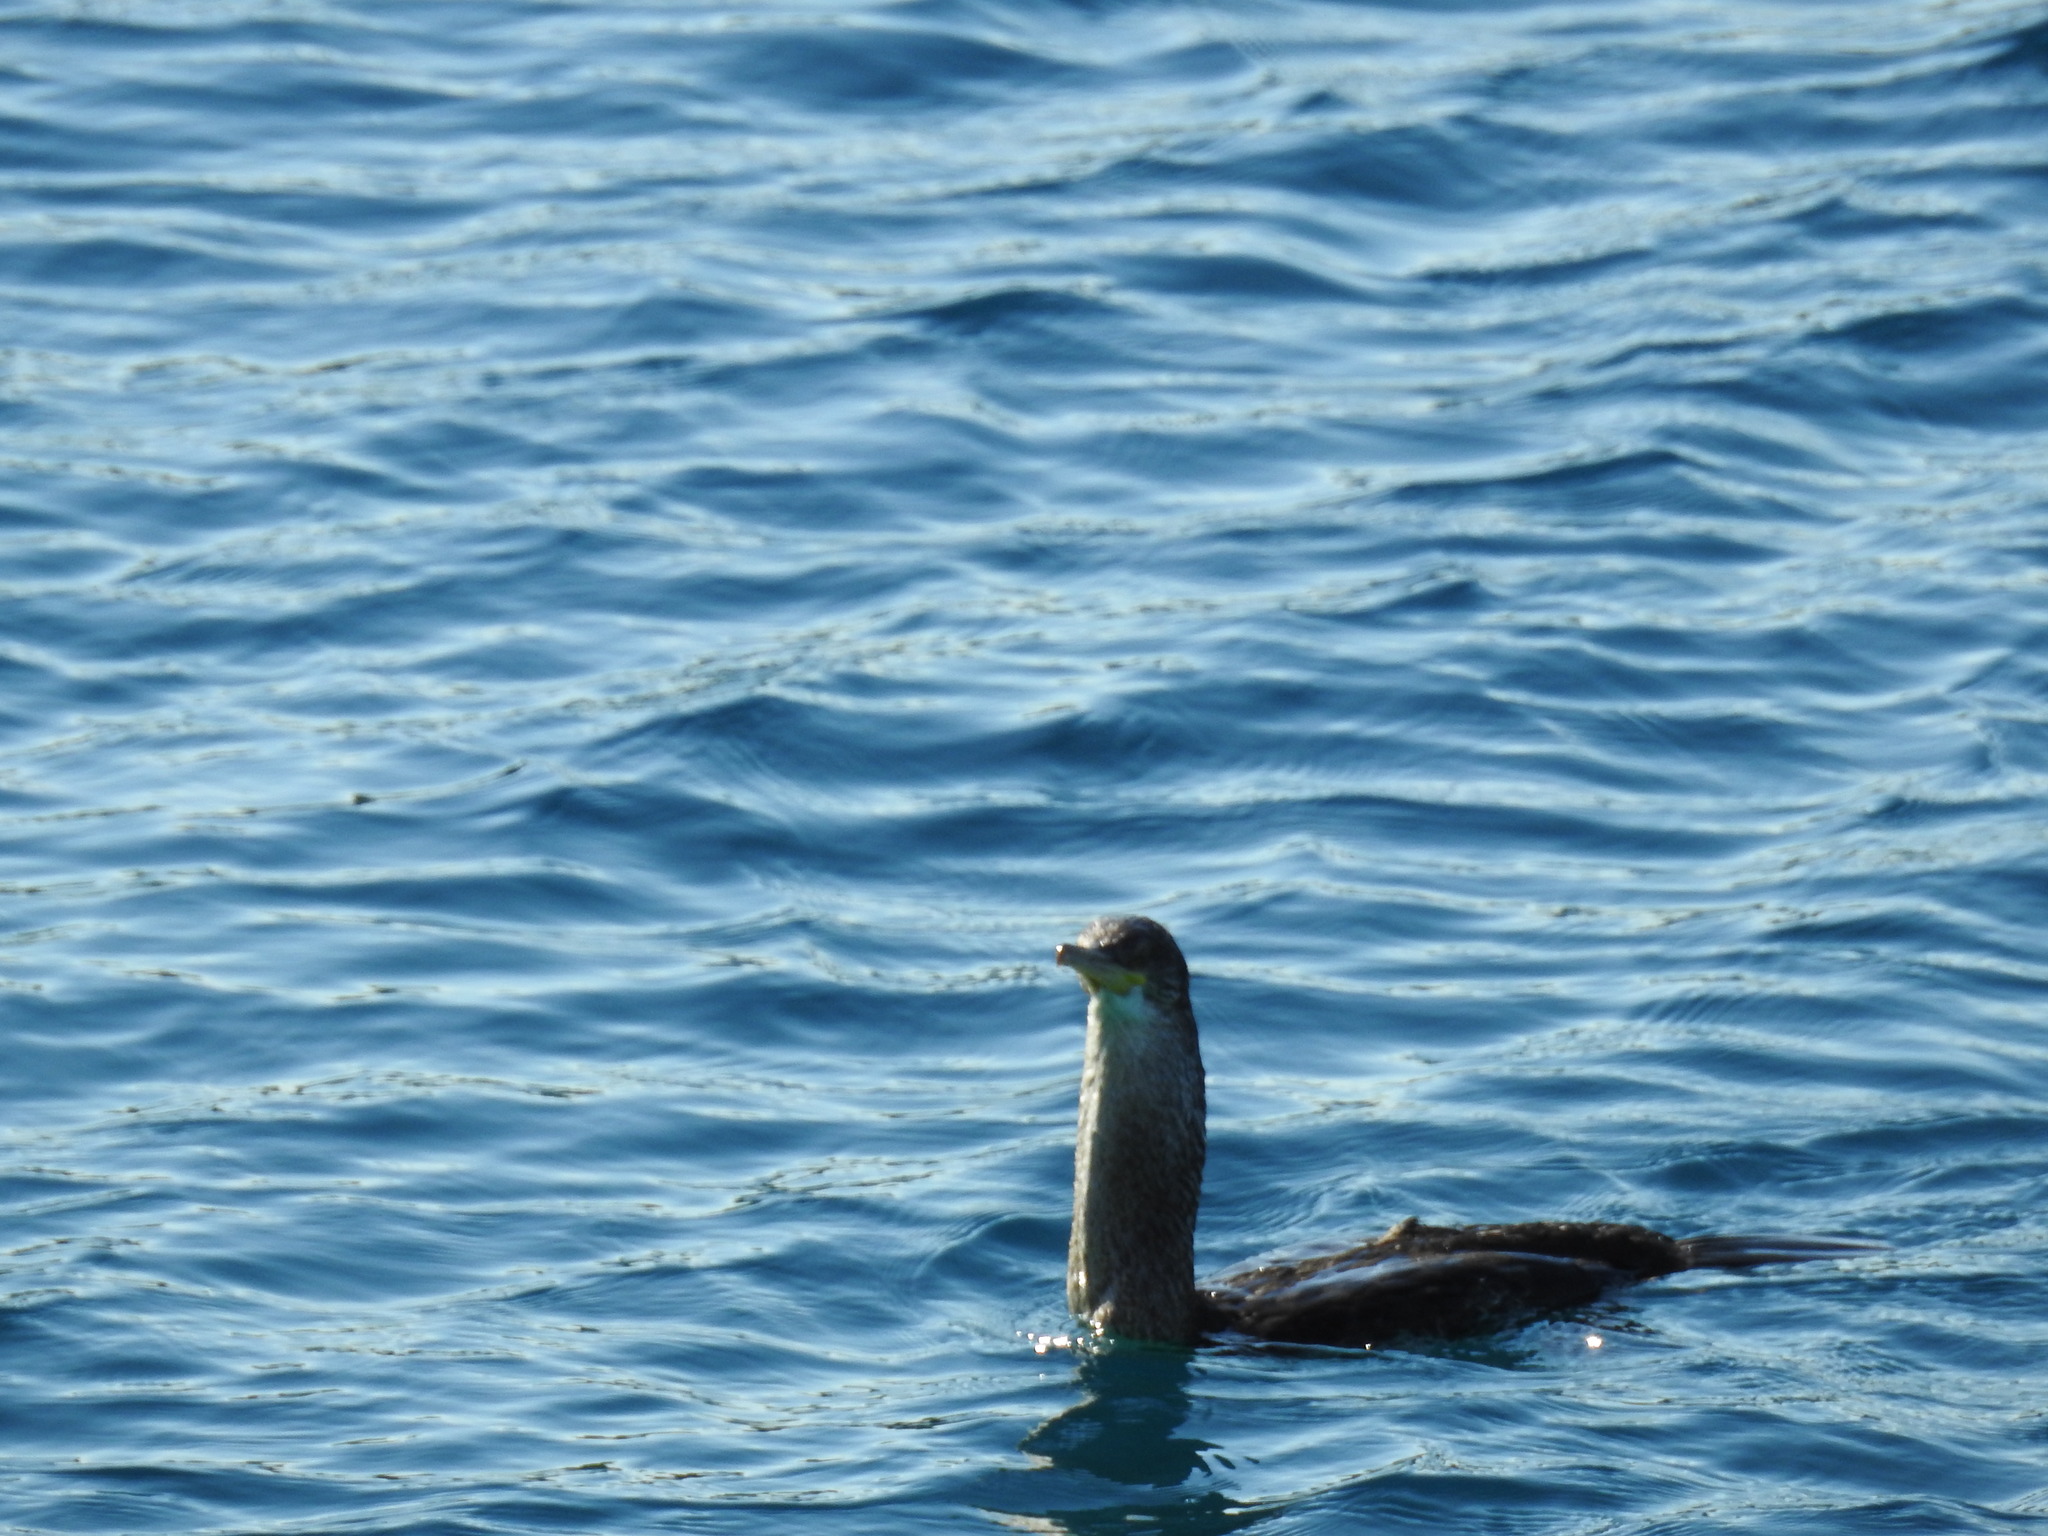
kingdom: Animalia
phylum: Chordata
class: Aves
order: Suliformes
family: Phalacrocoracidae
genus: Phalacrocorax
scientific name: Phalacrocorax aristotelis
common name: European shag
